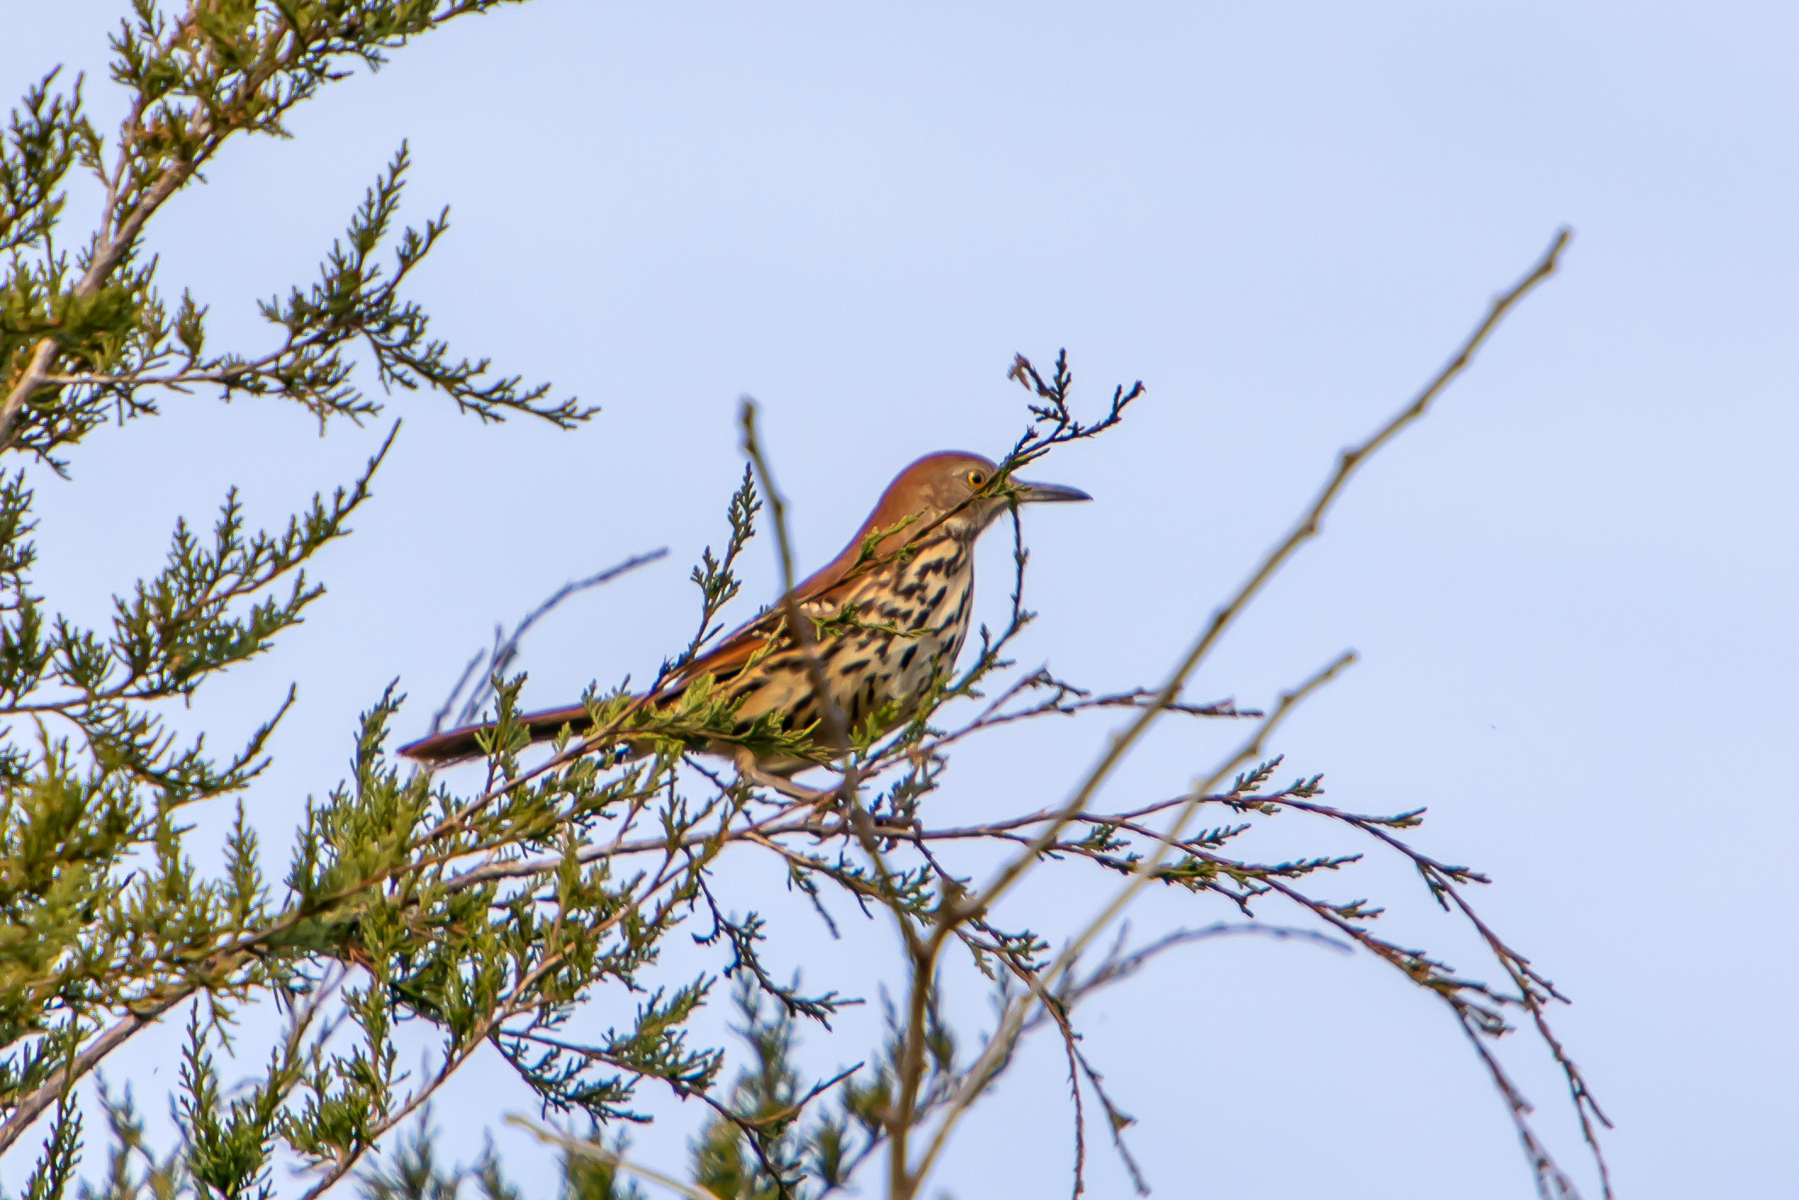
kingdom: Animalia
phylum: Chordata
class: Aves
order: Passeriformes
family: Mimidae
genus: Toxostoma
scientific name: Toxostoma rufum
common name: Brown thrasher
